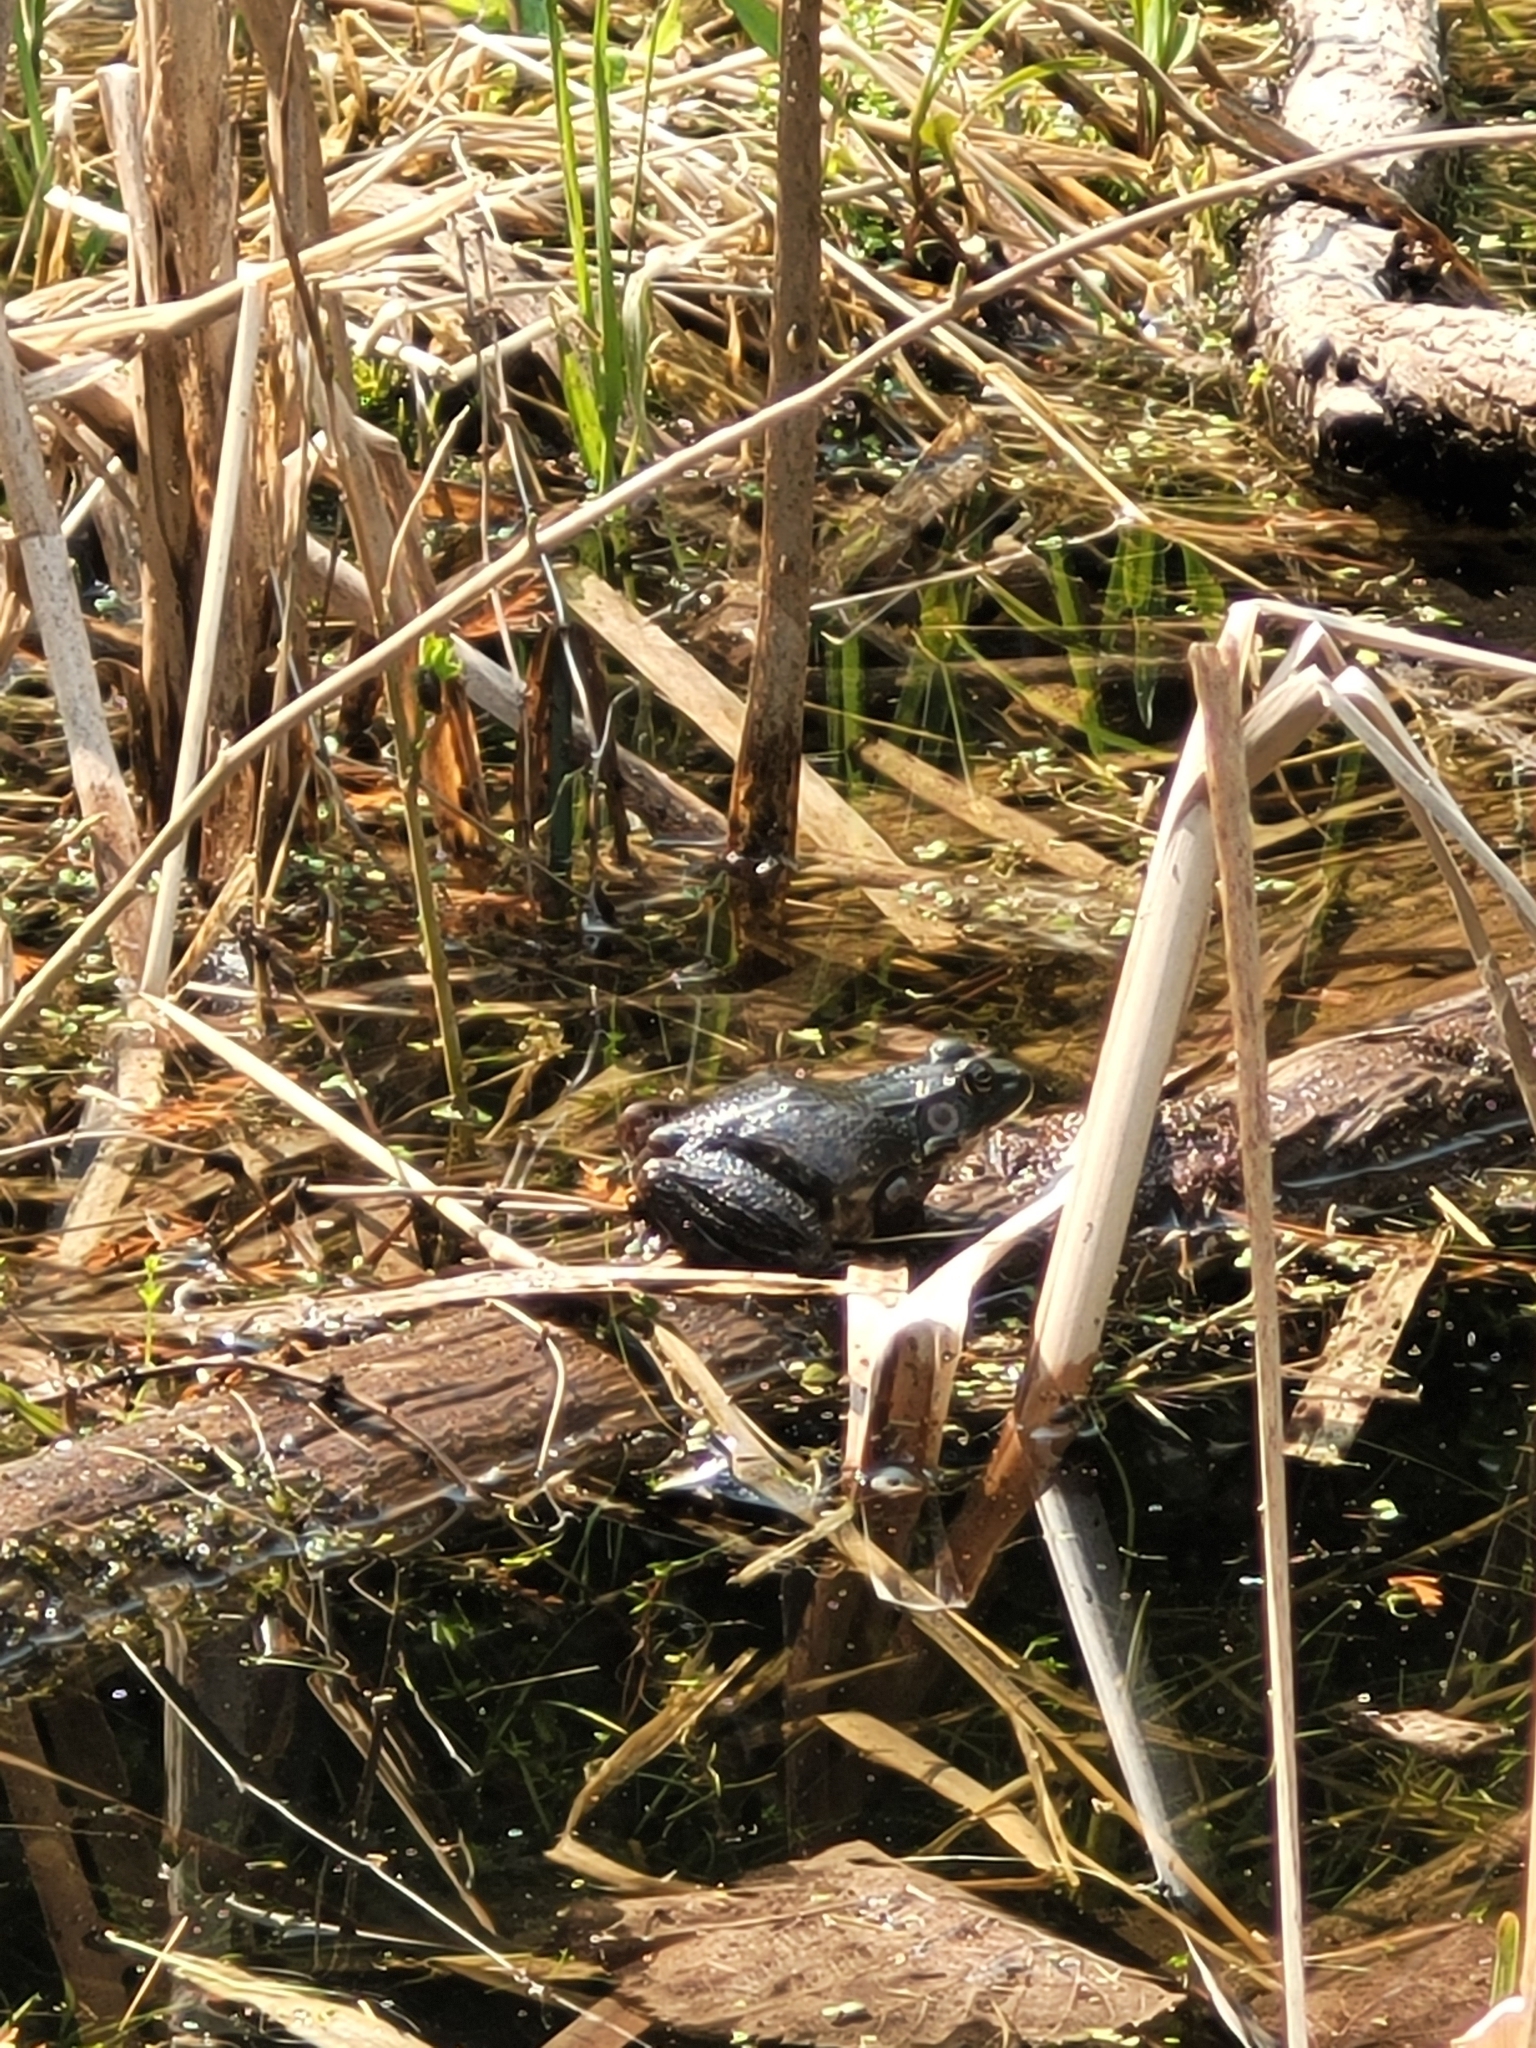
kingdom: Animalia
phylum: Chordata
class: Amphibia
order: Anura
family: Ranidae
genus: Lithobates
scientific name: Lithobates clamitans
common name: Green frog
